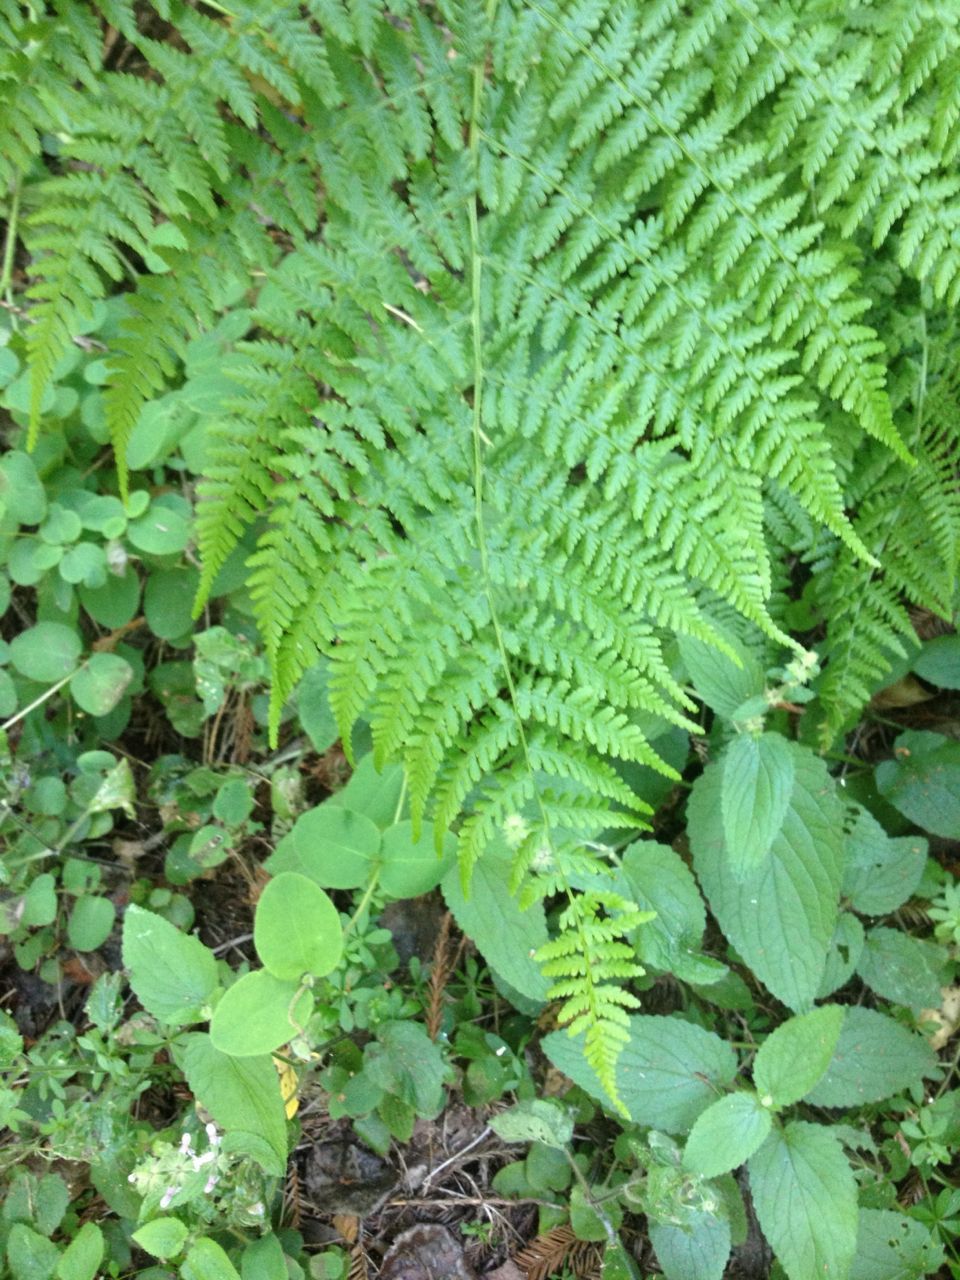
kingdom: Plantae
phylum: Tracheophyta
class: Polypodiopsida
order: Polypodiales
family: Athyriaceae
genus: Athyrium
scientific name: Athyrium filix-femina
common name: Lady fern
